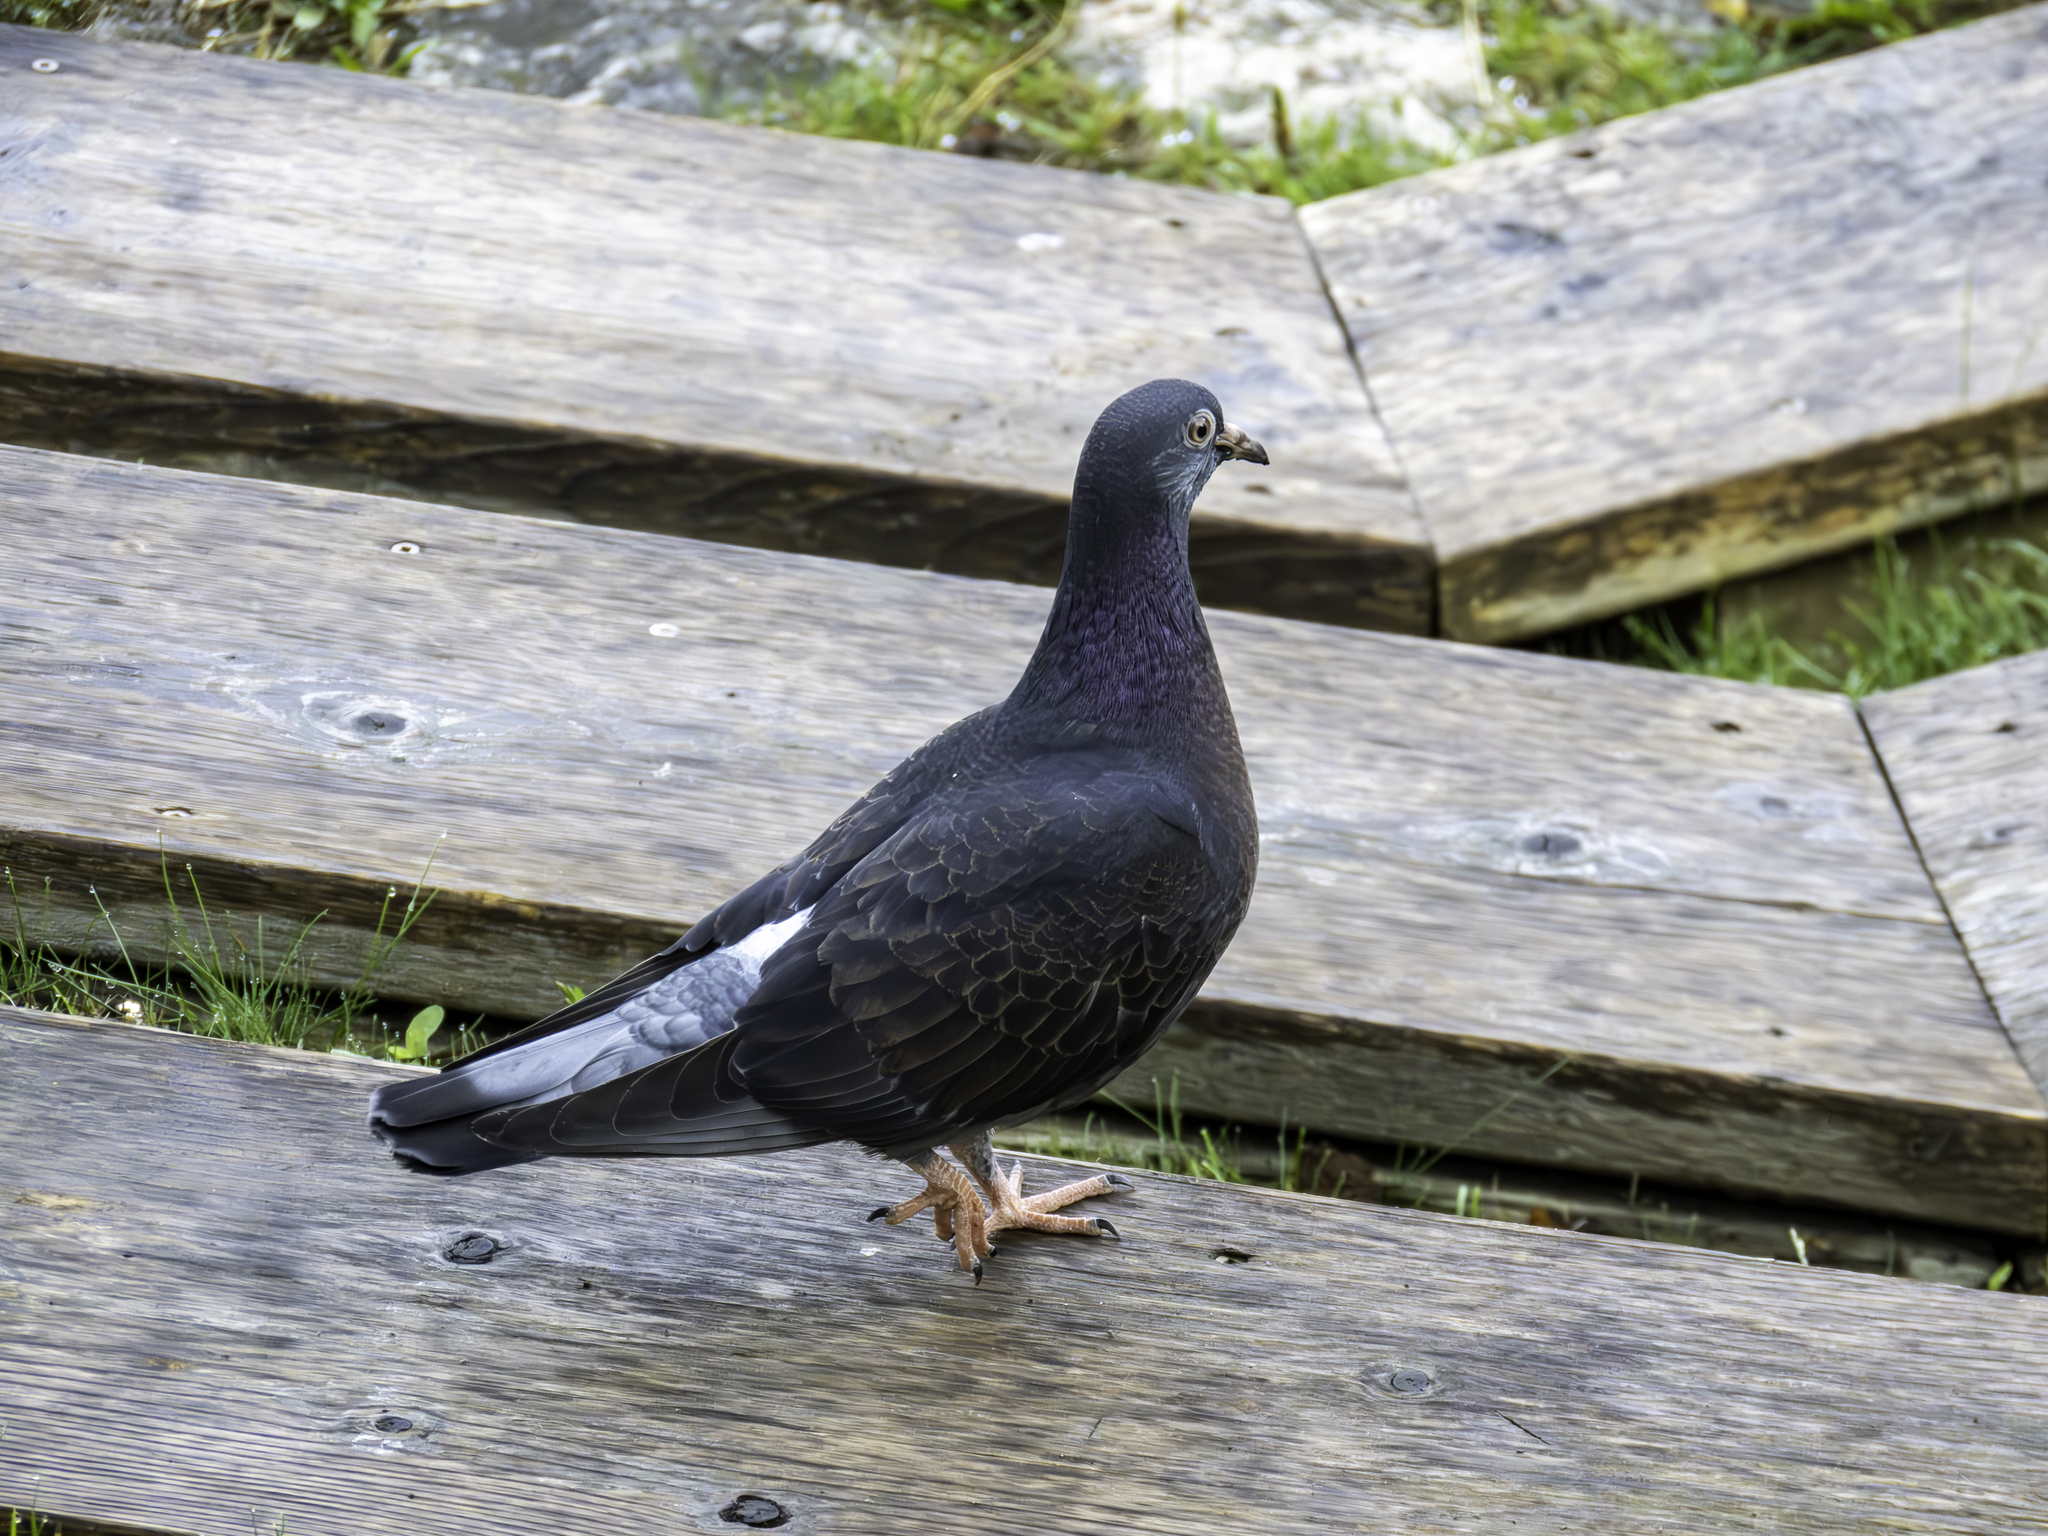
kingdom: Animalia
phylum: Chordata
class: Aves
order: Columbiformes
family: Columbidae
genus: Columba
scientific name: Columba livia
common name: Rock pigeon
